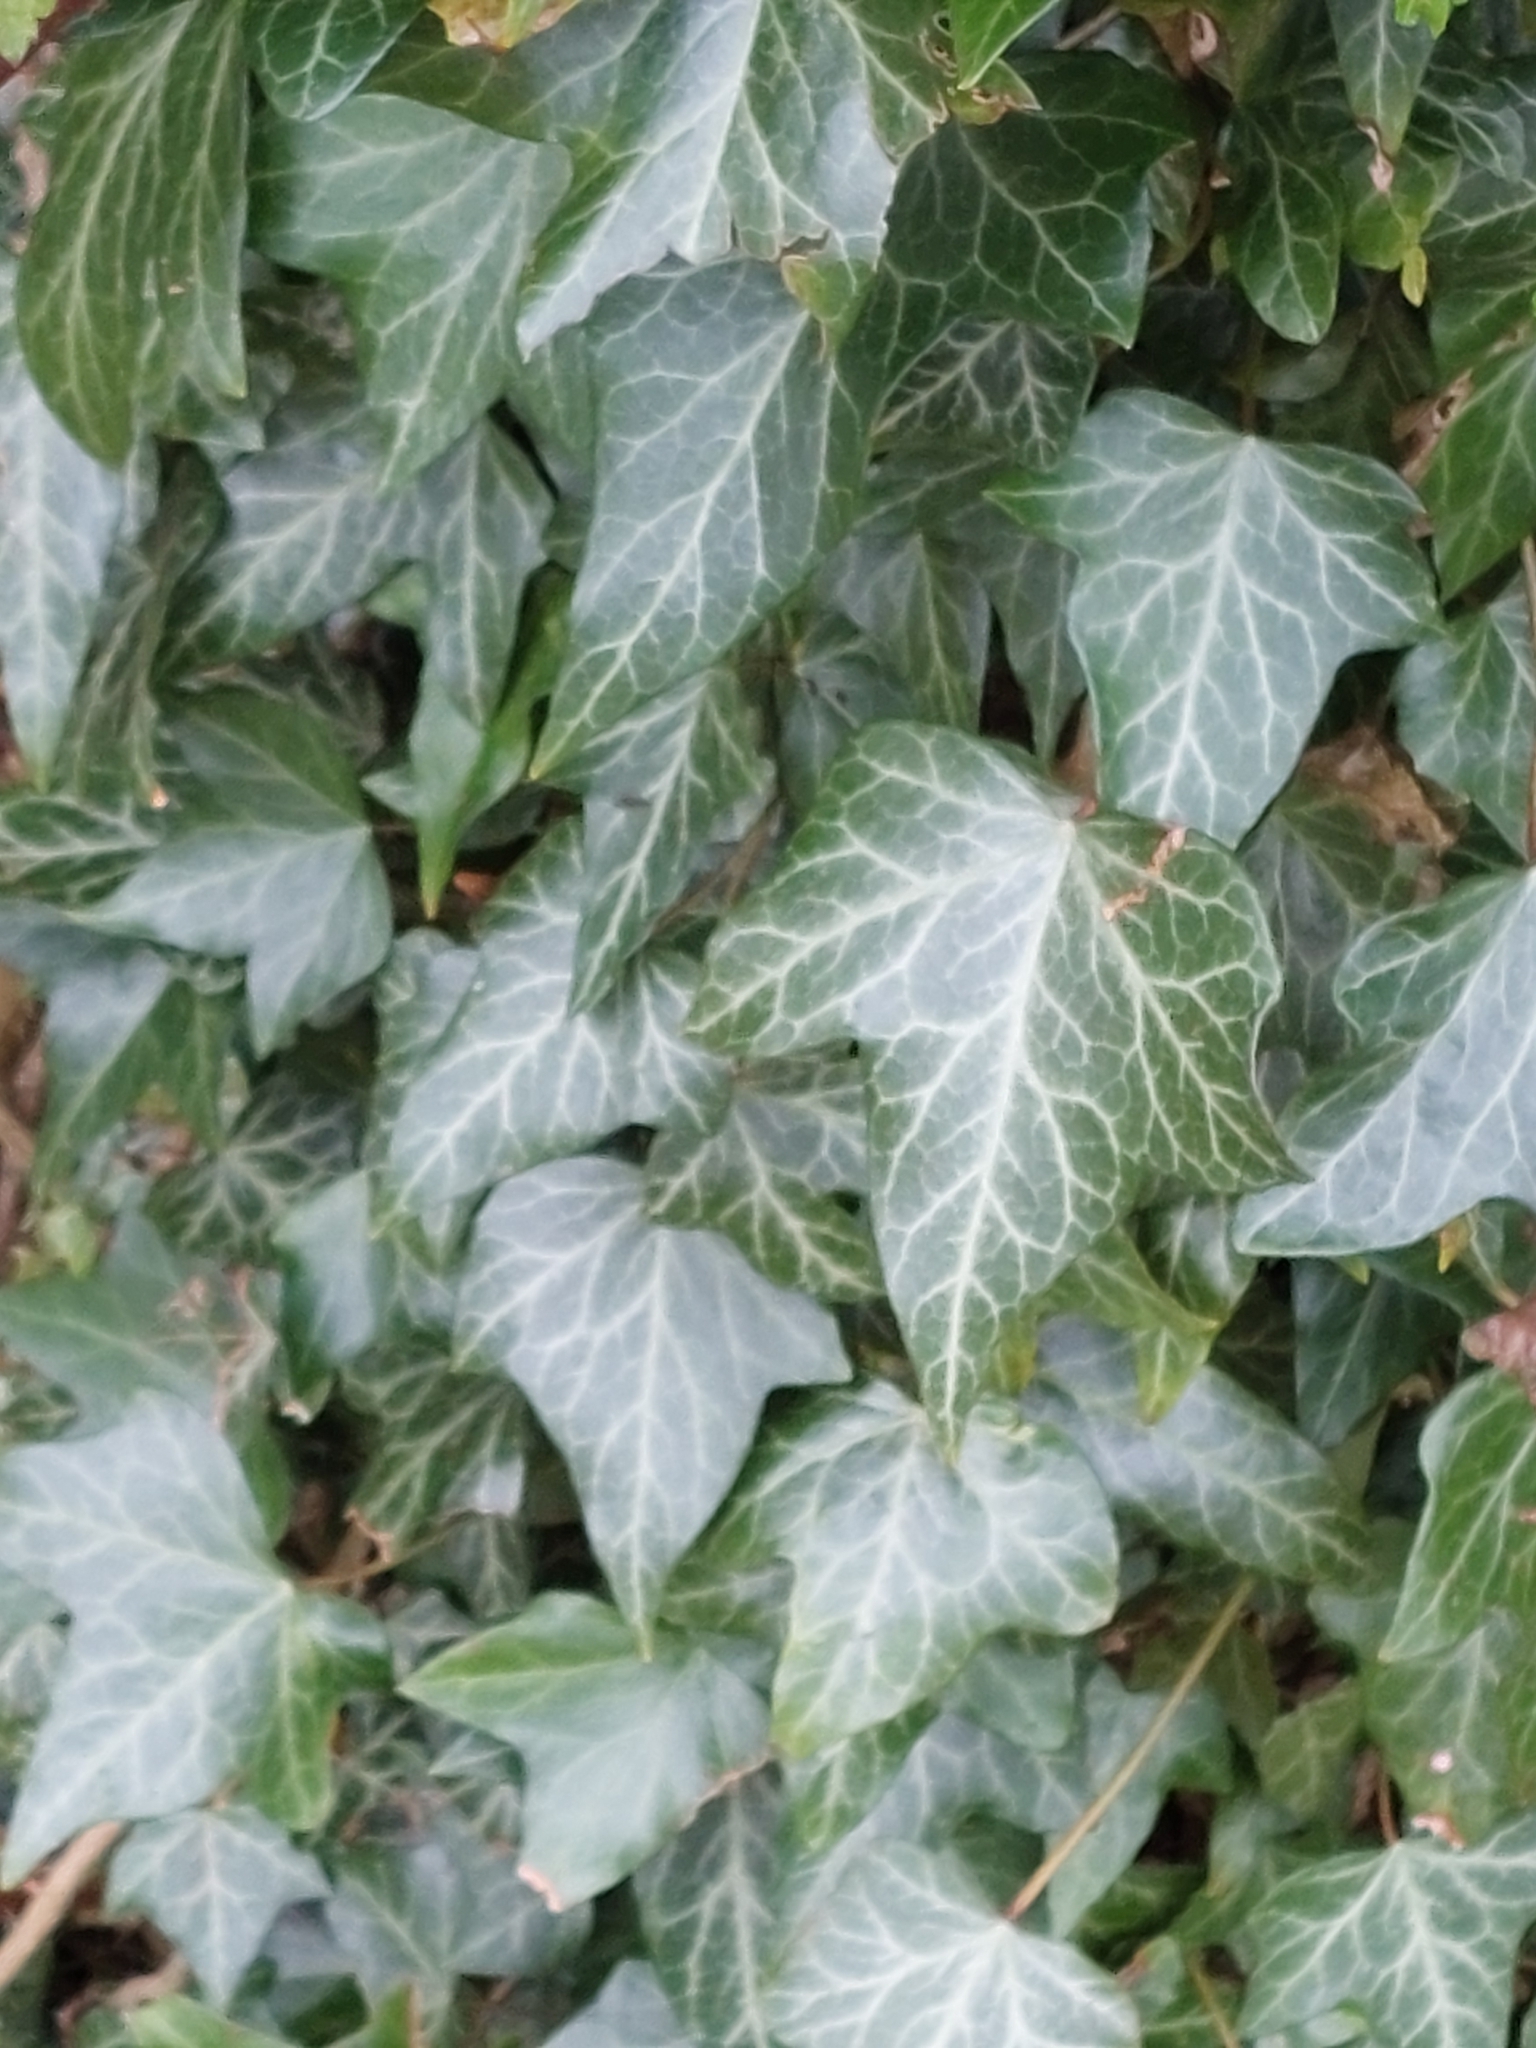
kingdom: Plantae
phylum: Tracheophyta
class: Magnoliopsida
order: Apiales
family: Araliaceae
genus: Hedera
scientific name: Hedera helix
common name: Ivy
